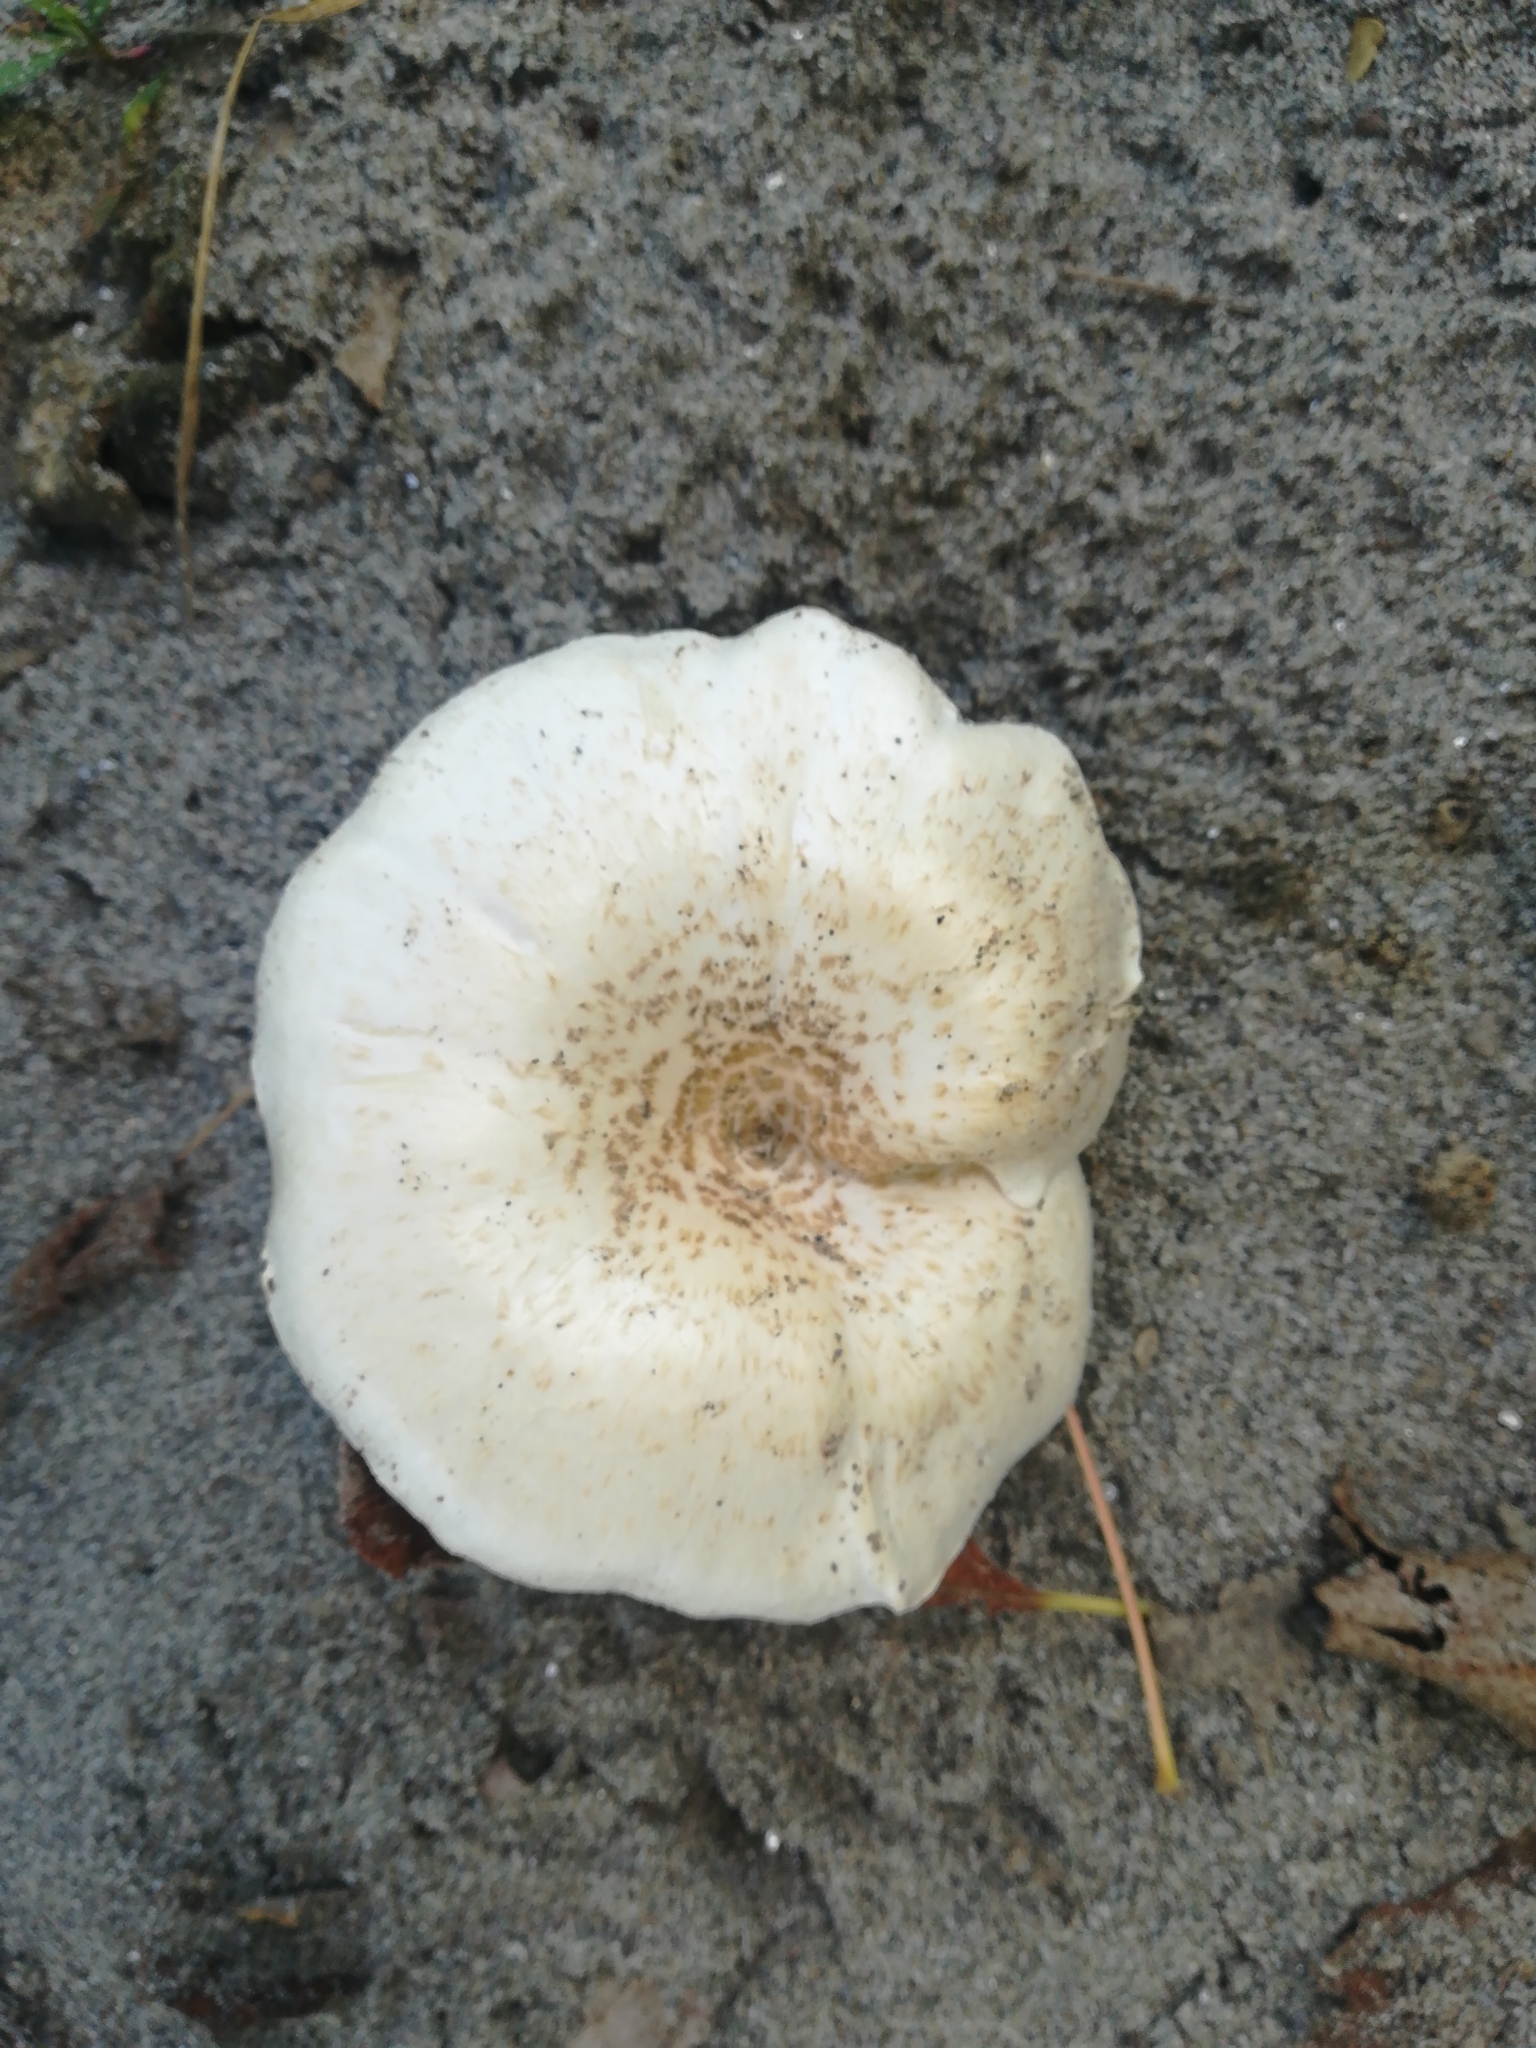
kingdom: Fungi
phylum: Basidiomycota
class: Agaricomycetes
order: Polyporales
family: Polyporaceae
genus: Lentinus
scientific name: Lentinus tigrinus
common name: Tiger sawgill
